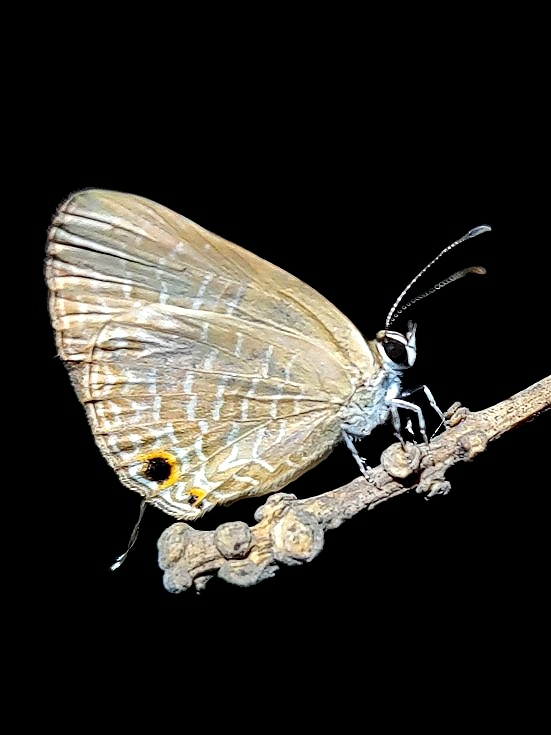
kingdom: Animalia
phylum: Arthropoda
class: Insecta
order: Lepidoptera
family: Lycaenidae
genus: Jamides
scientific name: Jamides celeno
